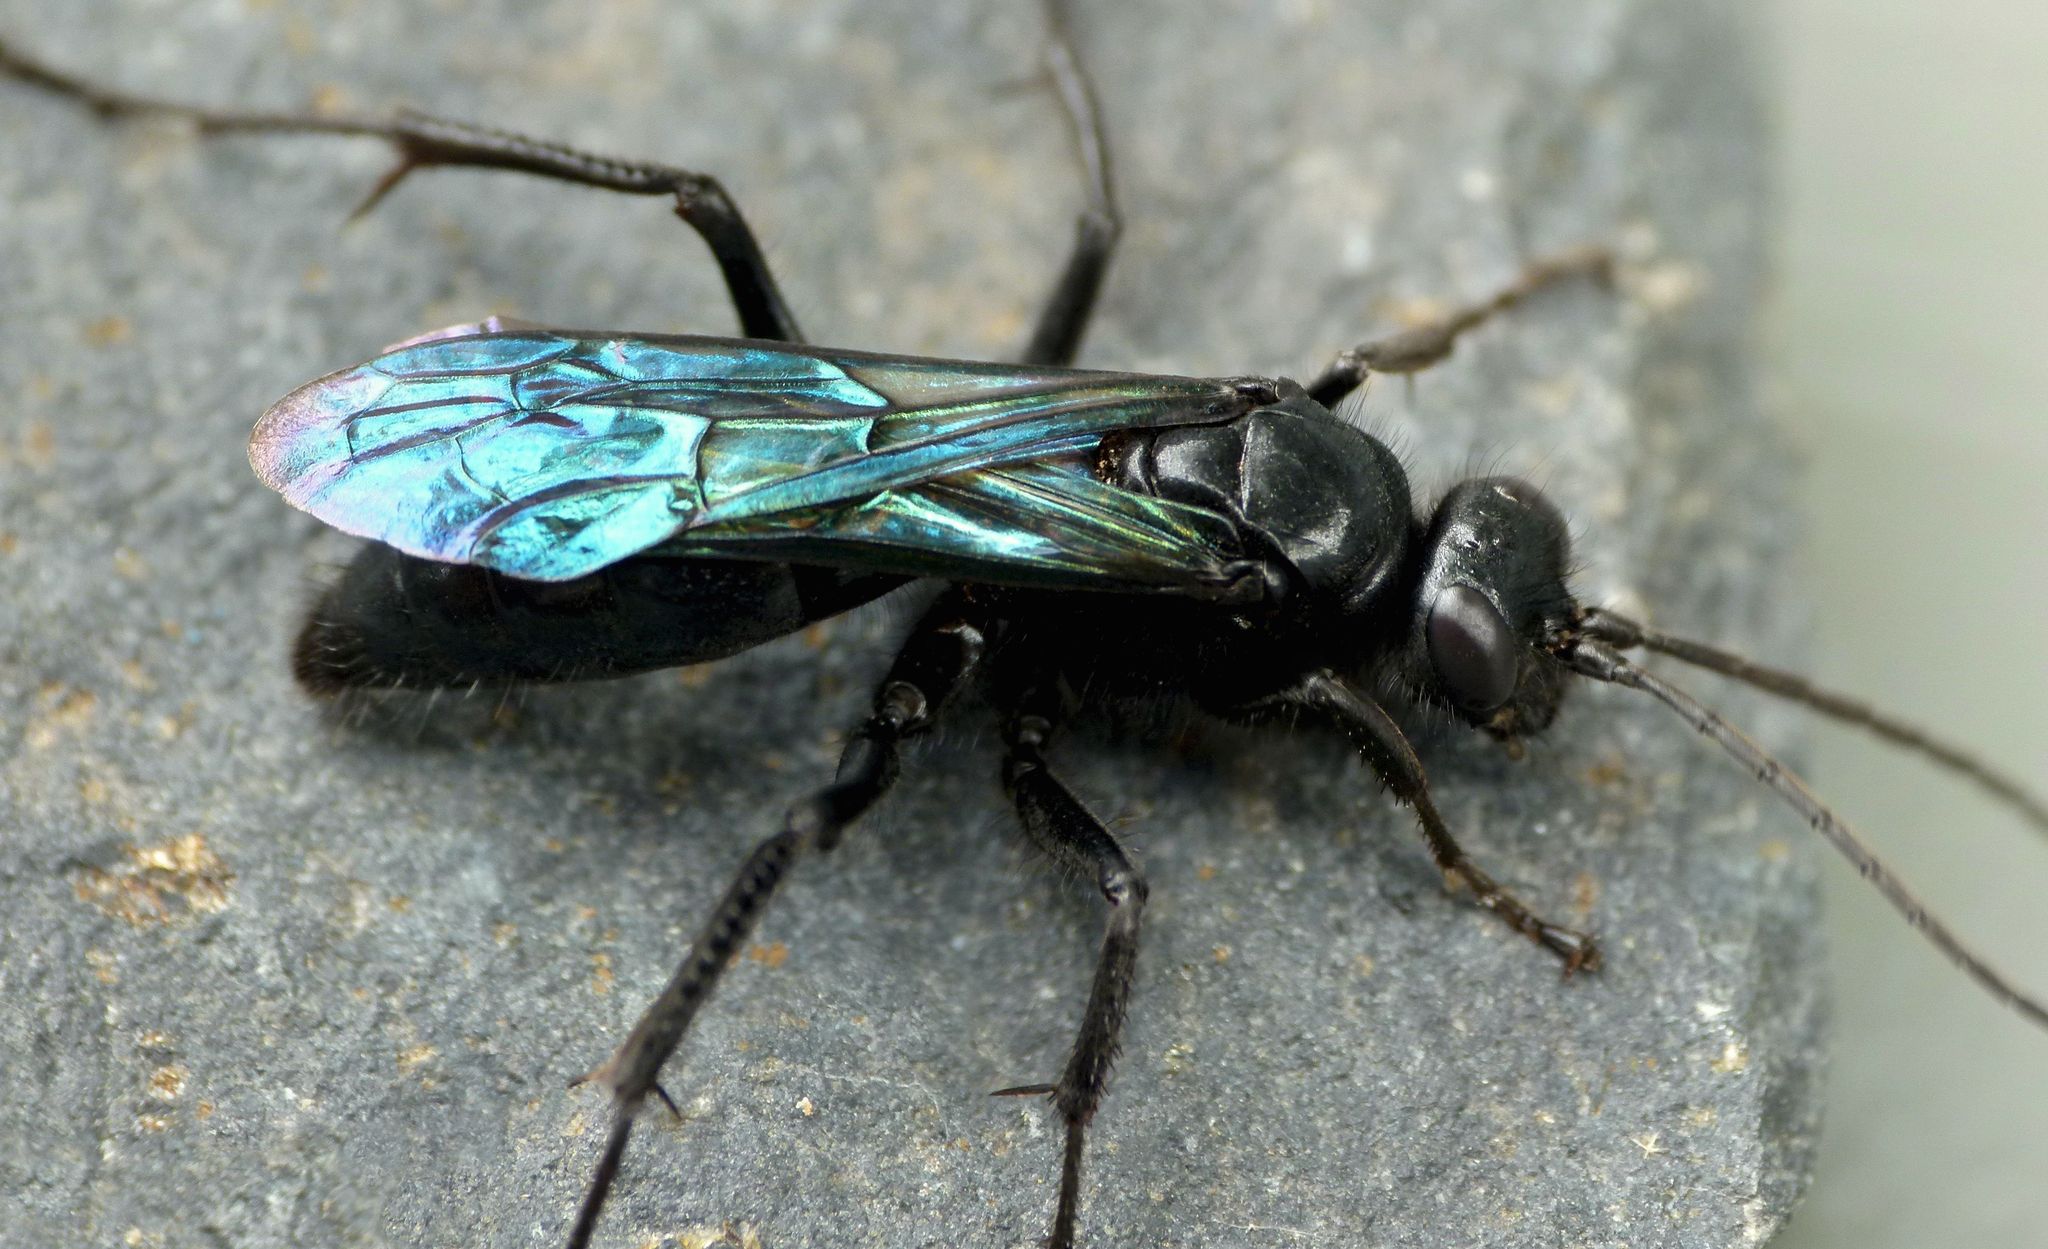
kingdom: Animalia
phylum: Arthropoda
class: Insecta
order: Hymenoptera
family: Pompilidae
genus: Priocnemis
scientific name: Priocnemis monachus
